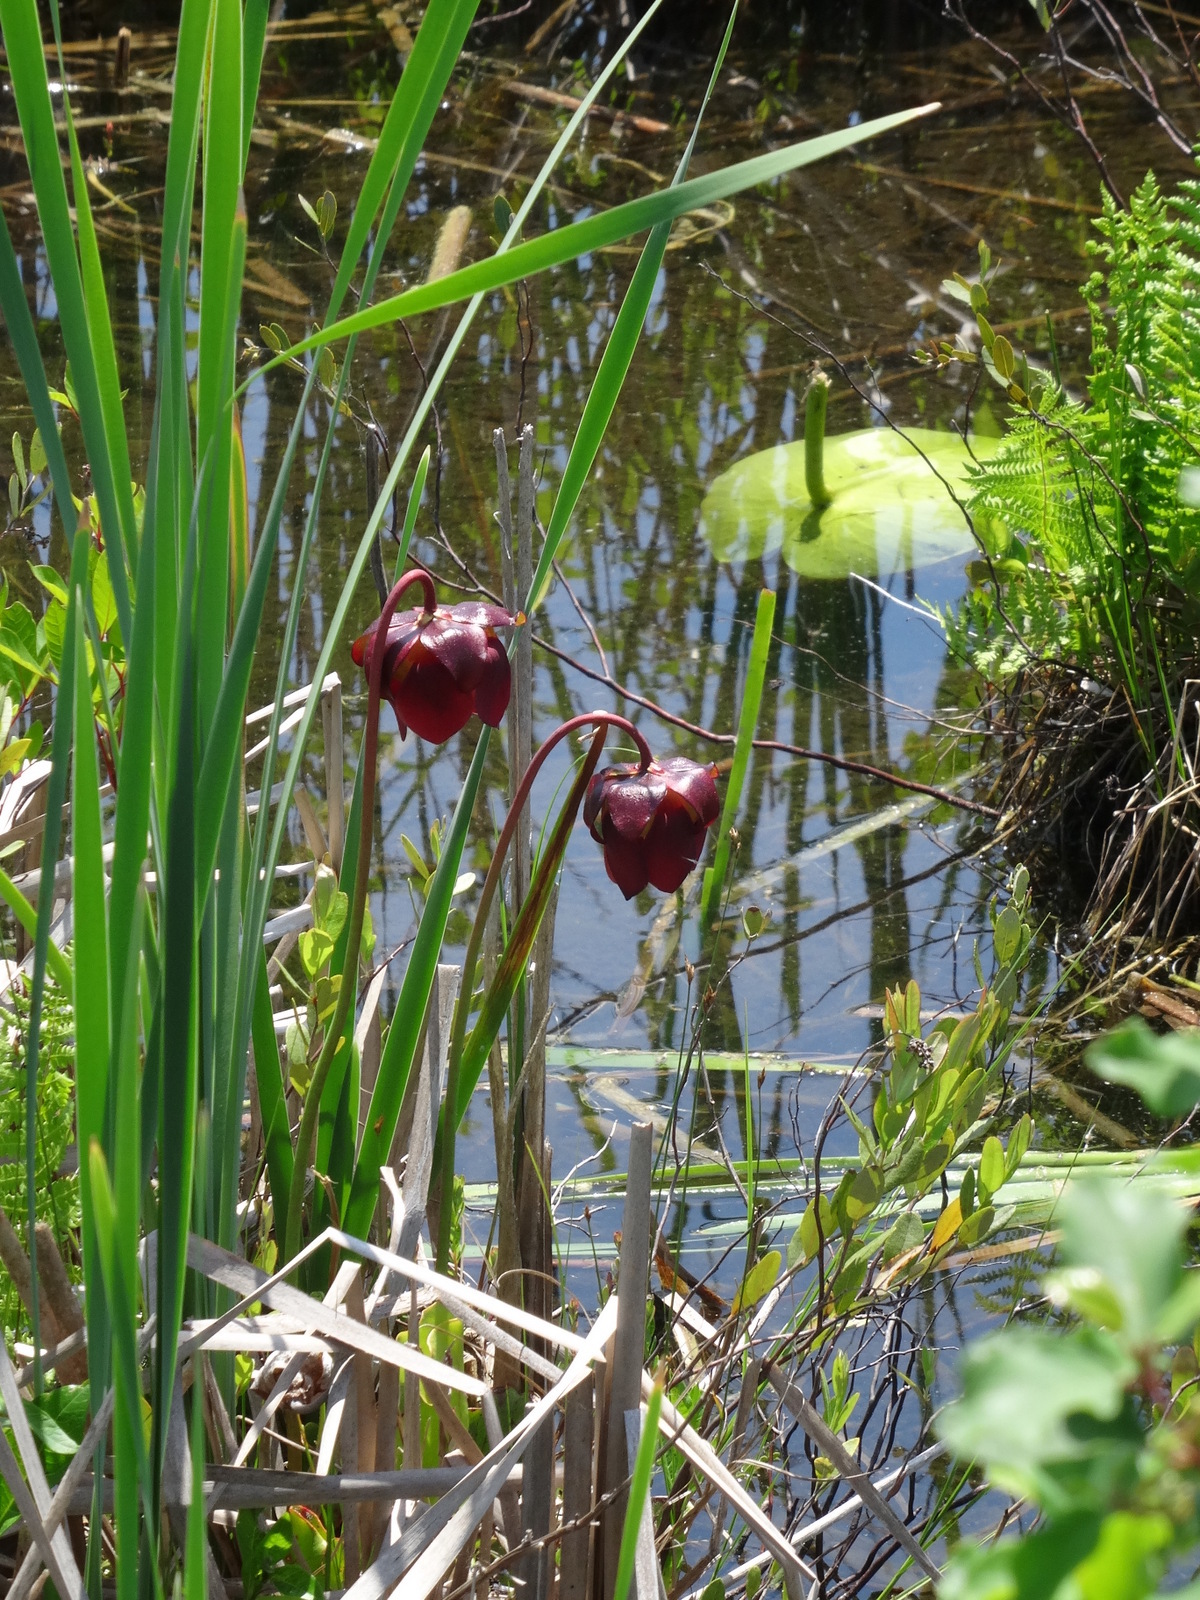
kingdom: Plantae
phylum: Tracheophyta
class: Magnoliopsida
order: Ericales
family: Sarraceniaceae
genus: Sarracenia
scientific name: Sarracenia purpurea
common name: Pitcherplant
